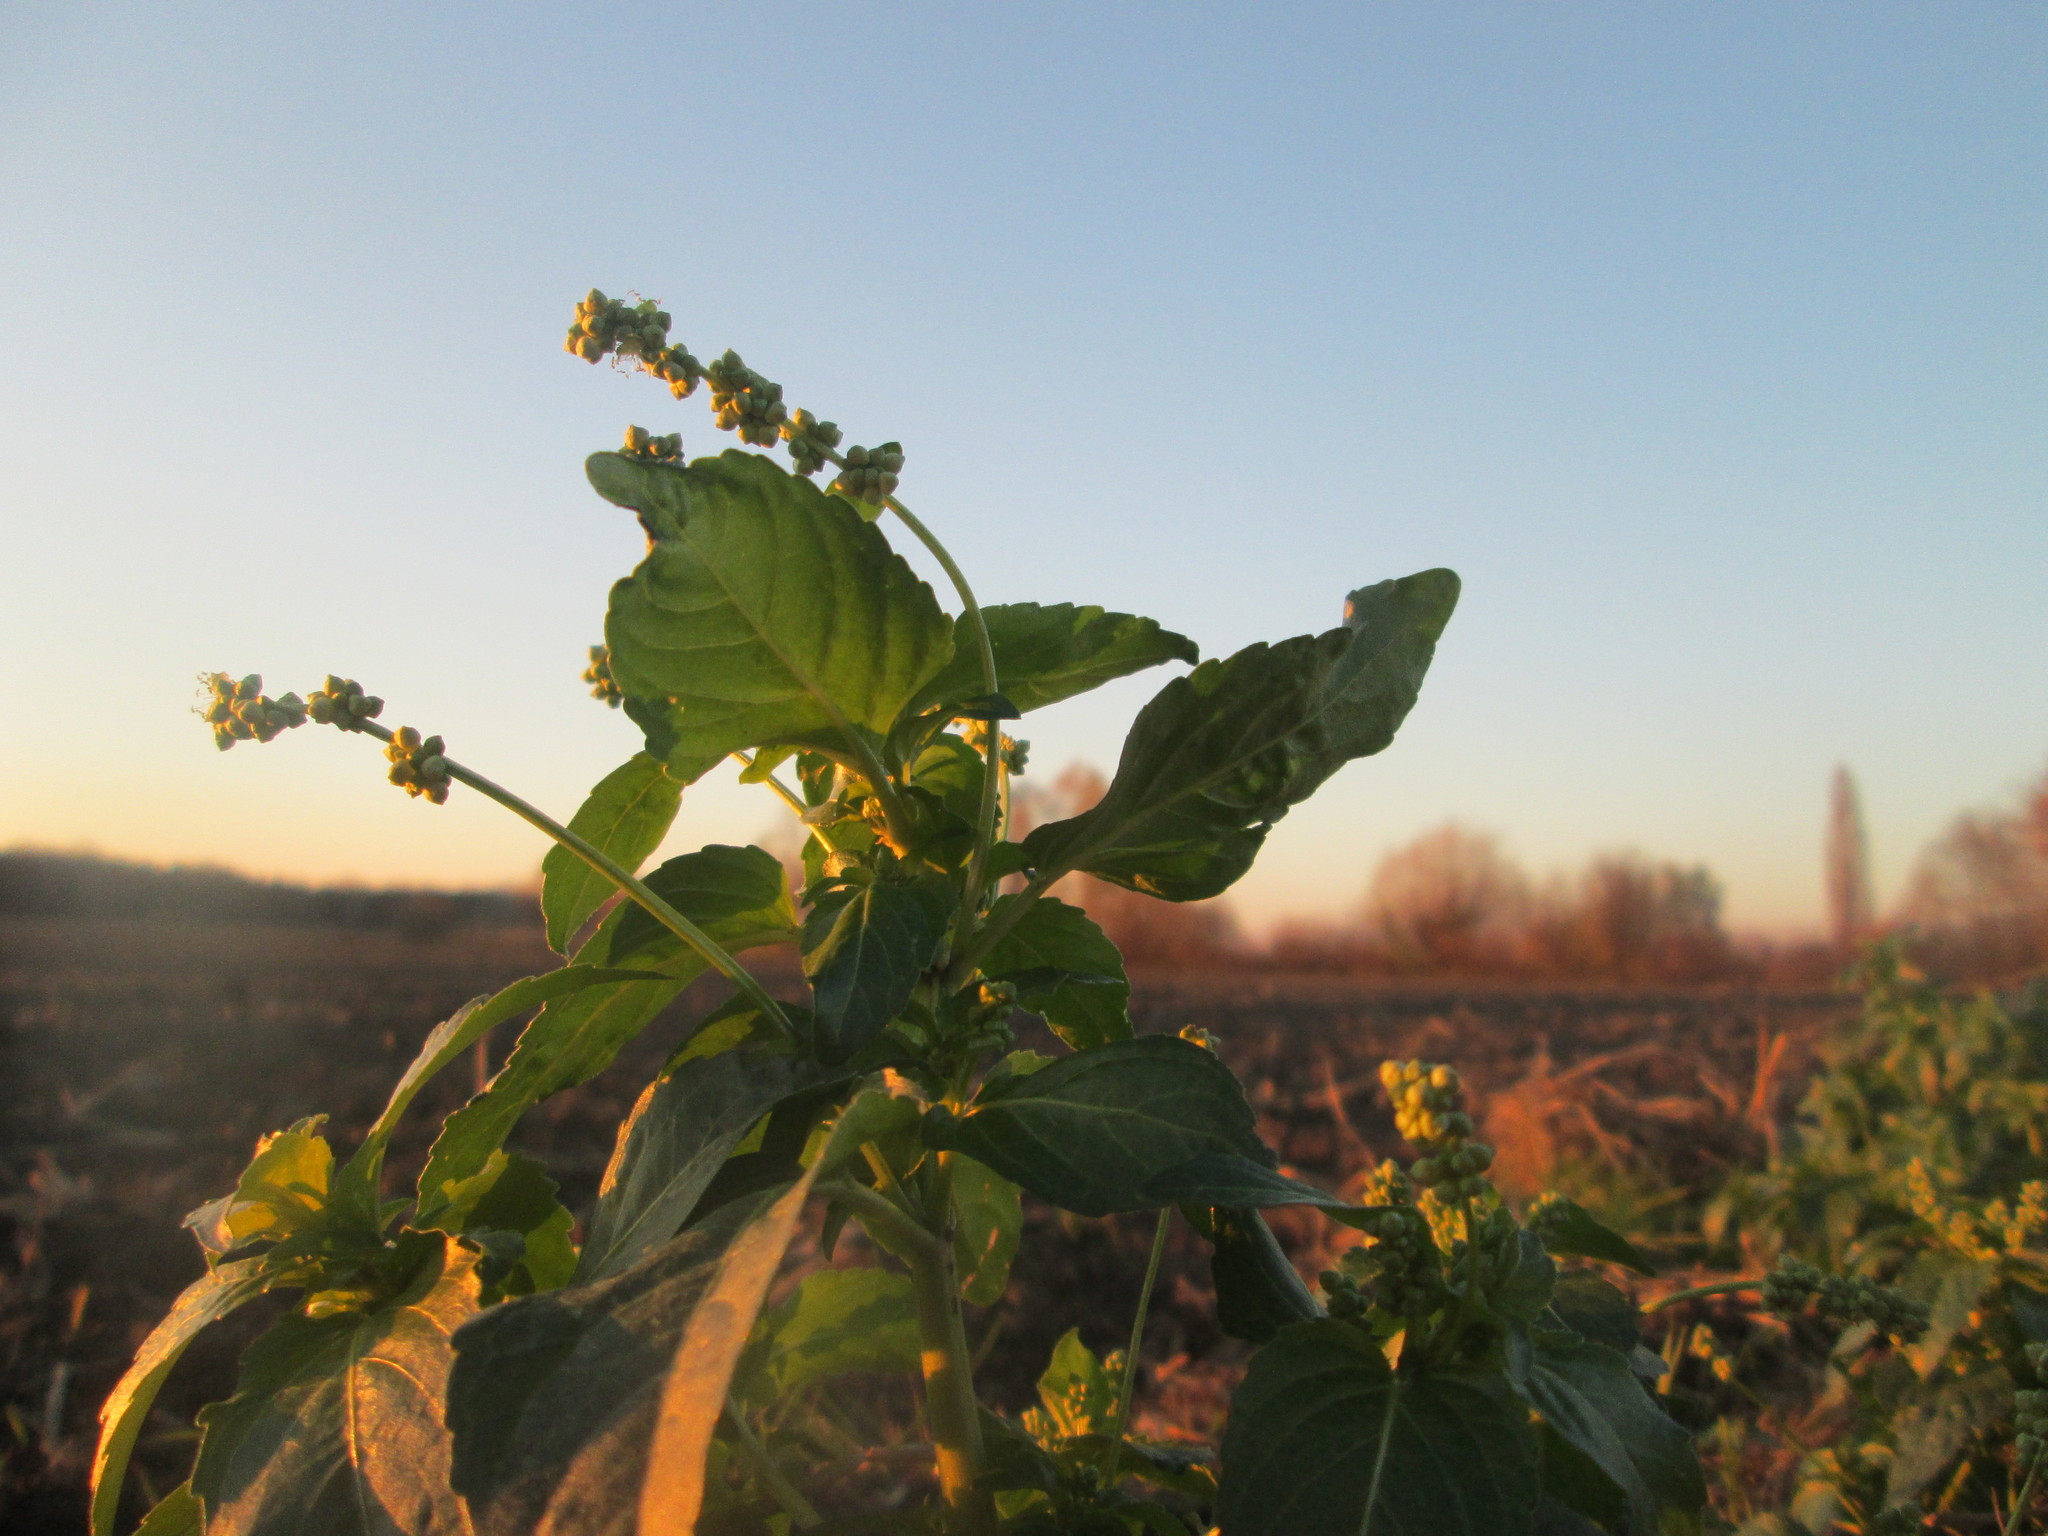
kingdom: Plantae
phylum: Tracheophyta
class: Magnoliopsida
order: Malpighiales
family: Euphorbiaceae
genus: Mercurialis
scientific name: Mercurialis annua
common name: Annual mercury
